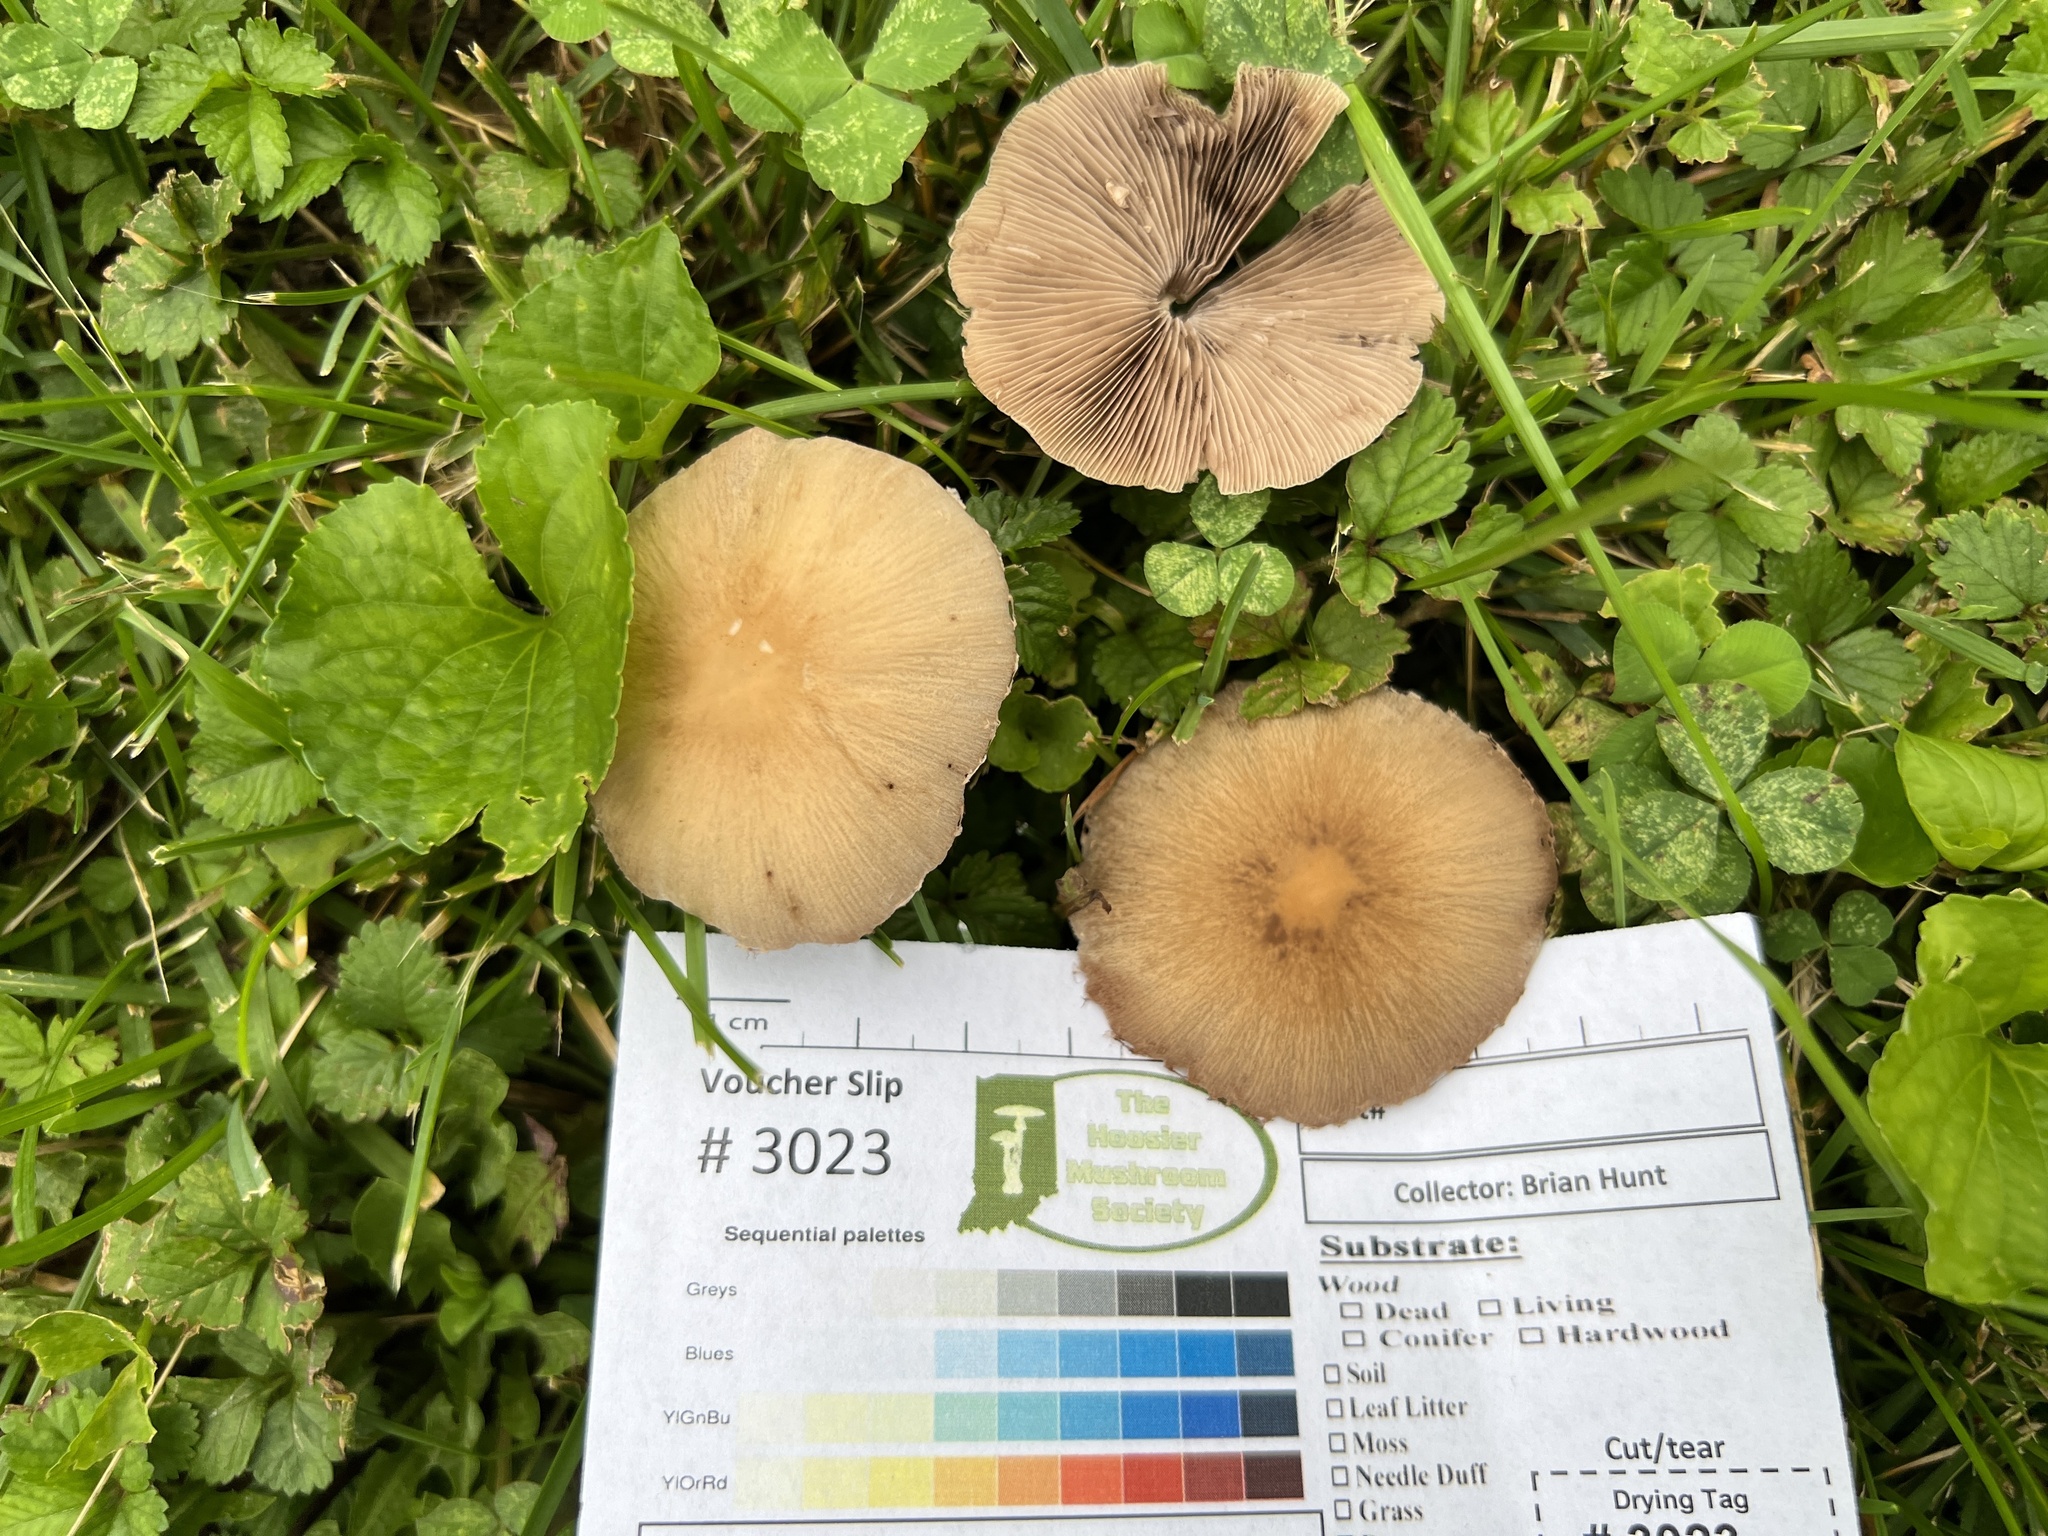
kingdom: Fungi
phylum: Basidiomycota
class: Agaricomycetes
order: Agaricales
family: Psathyrellaceae
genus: Candolleomyces
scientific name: Candolleomyces candolleanus
